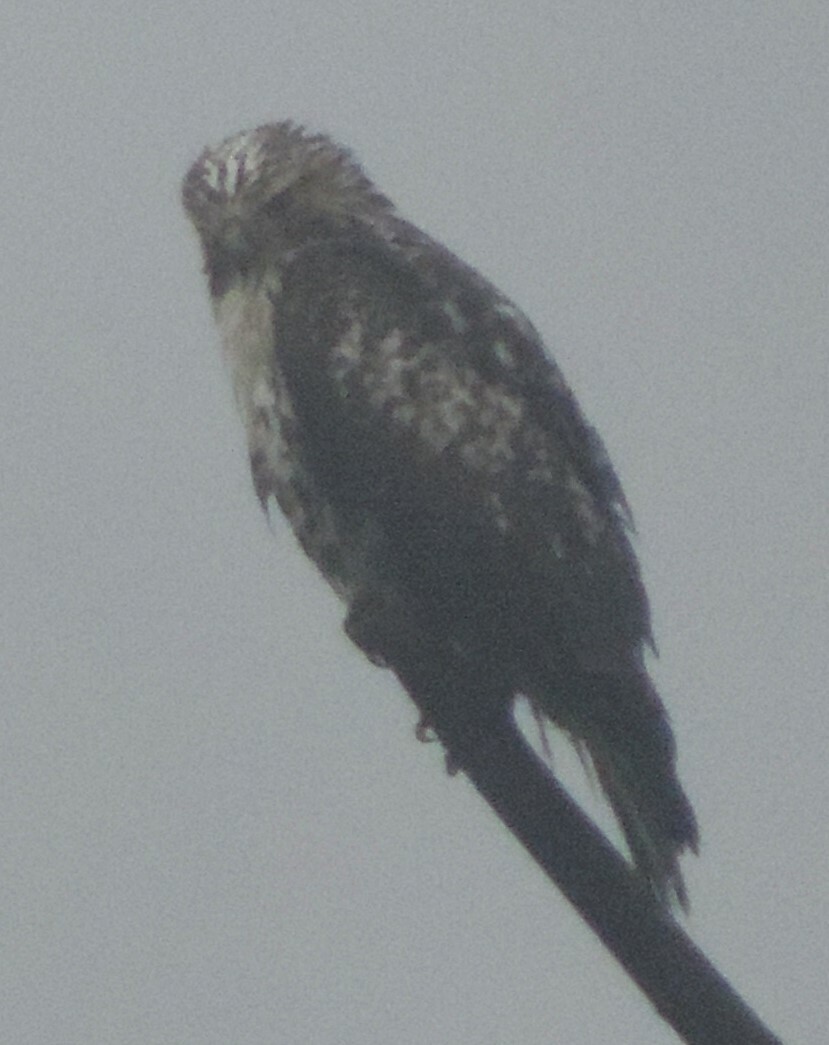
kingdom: Animalia
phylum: Chordata
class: Aves
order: Accipitriformes
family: Accipitridae
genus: Buteo
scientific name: Buteo jamaicensis
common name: Red-tailed hawk
